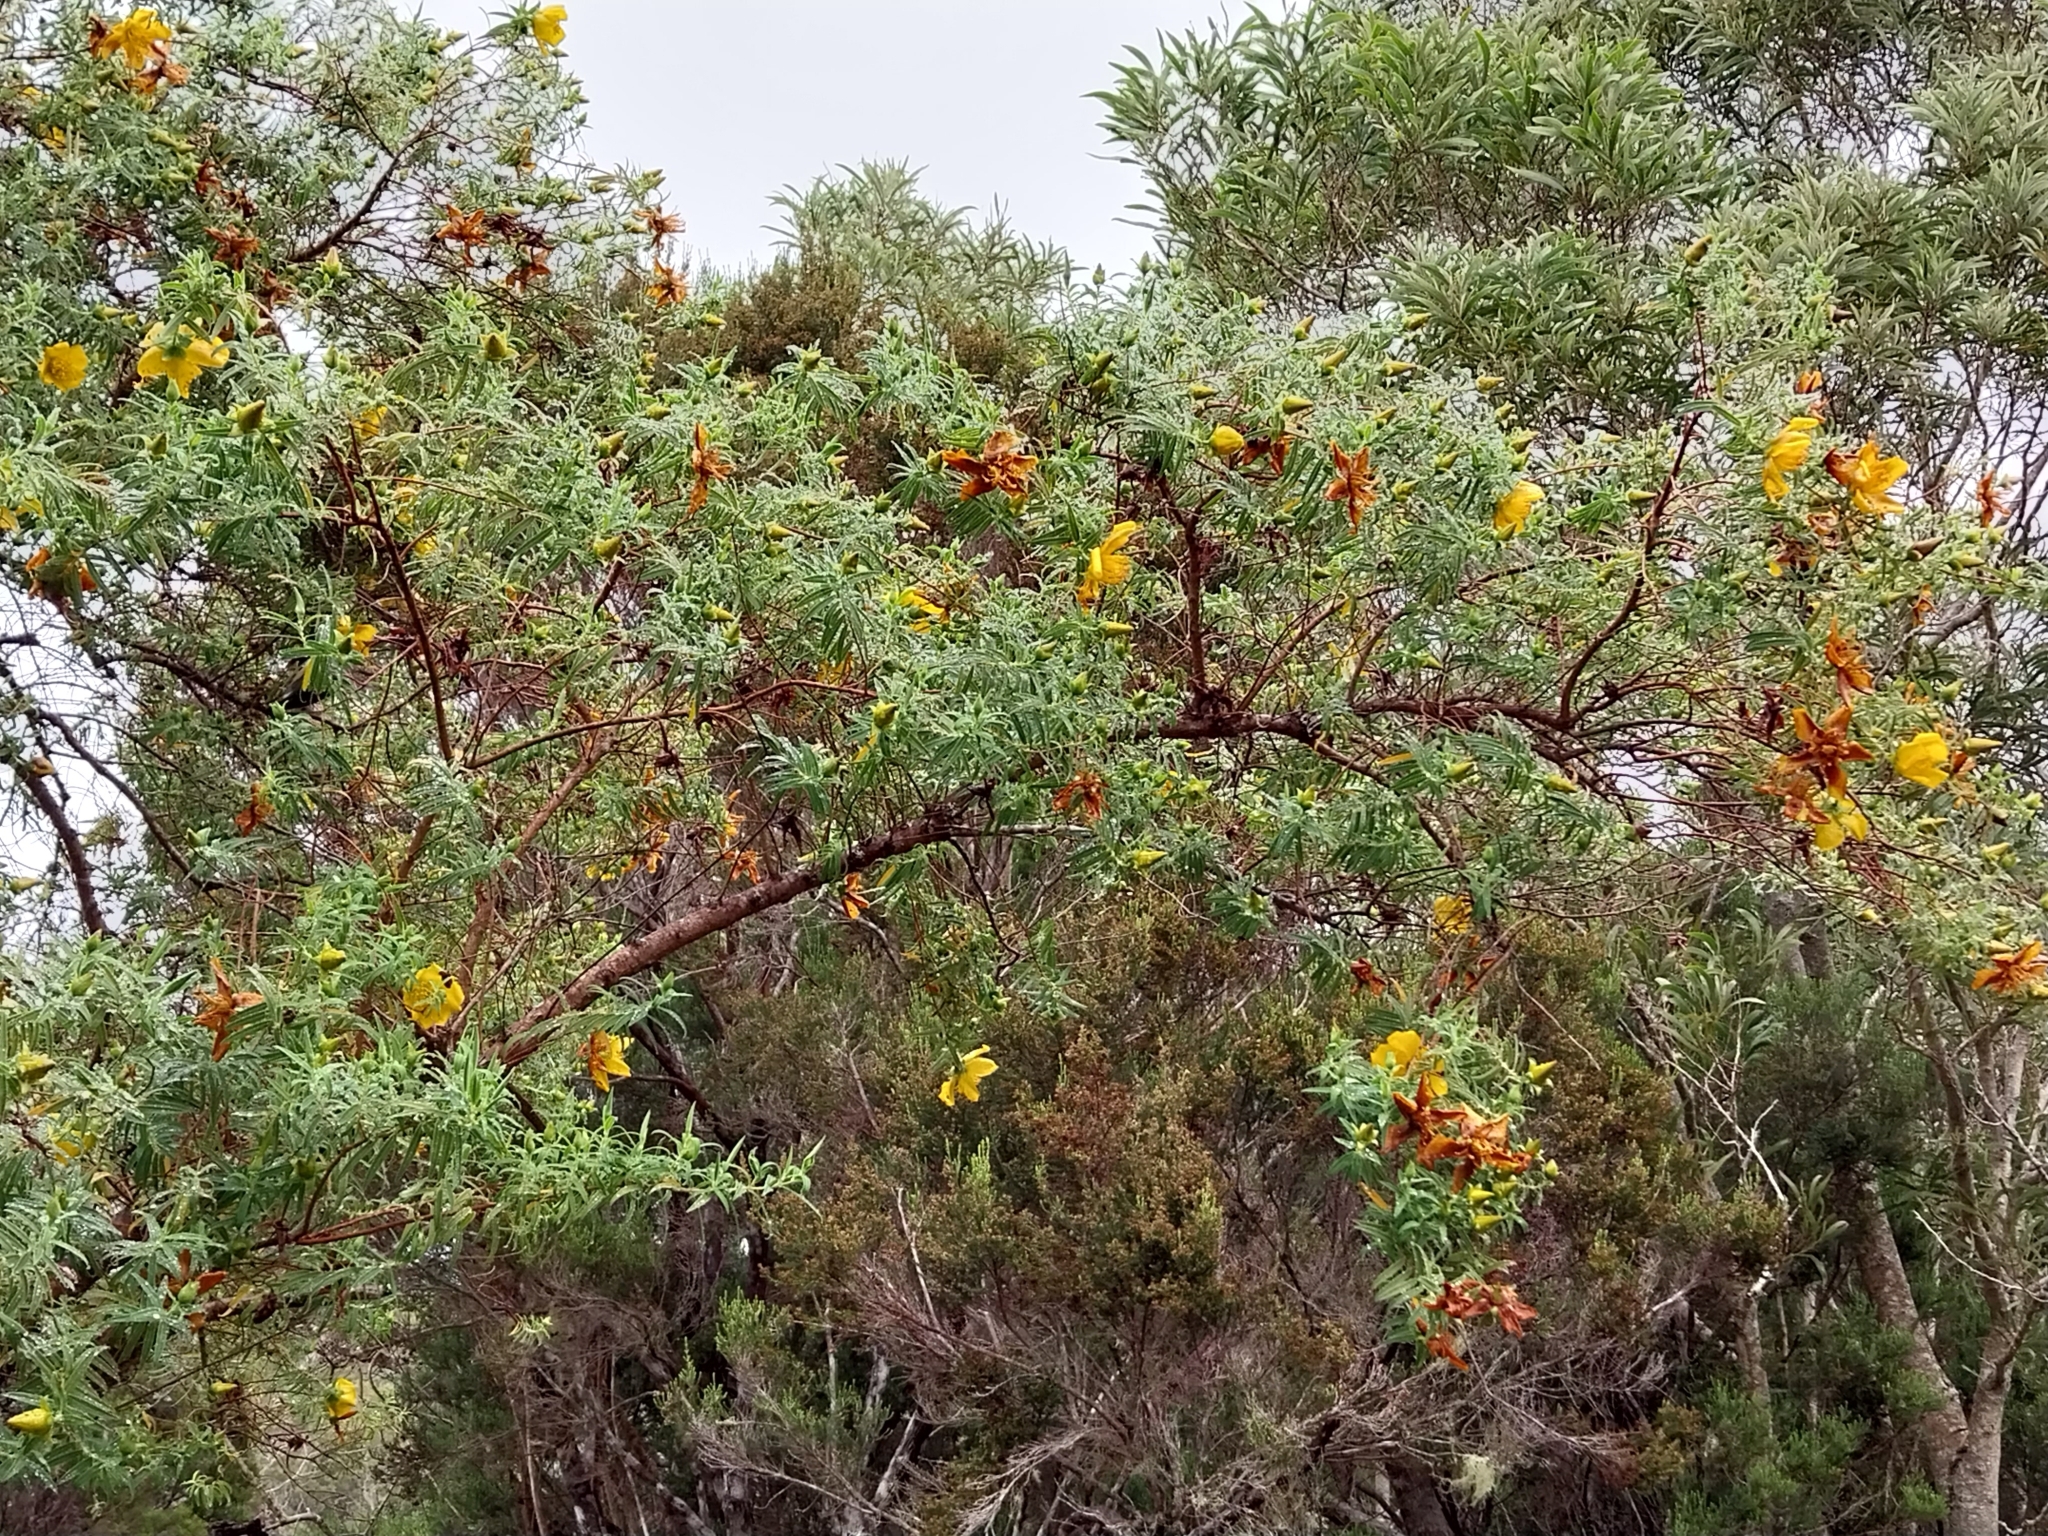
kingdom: Plantae
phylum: Tracheophyta
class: Magnoliopsida
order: Malpighiales
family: Hypericaceae
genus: Hypericum
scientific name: Hypericum lanceolatum
